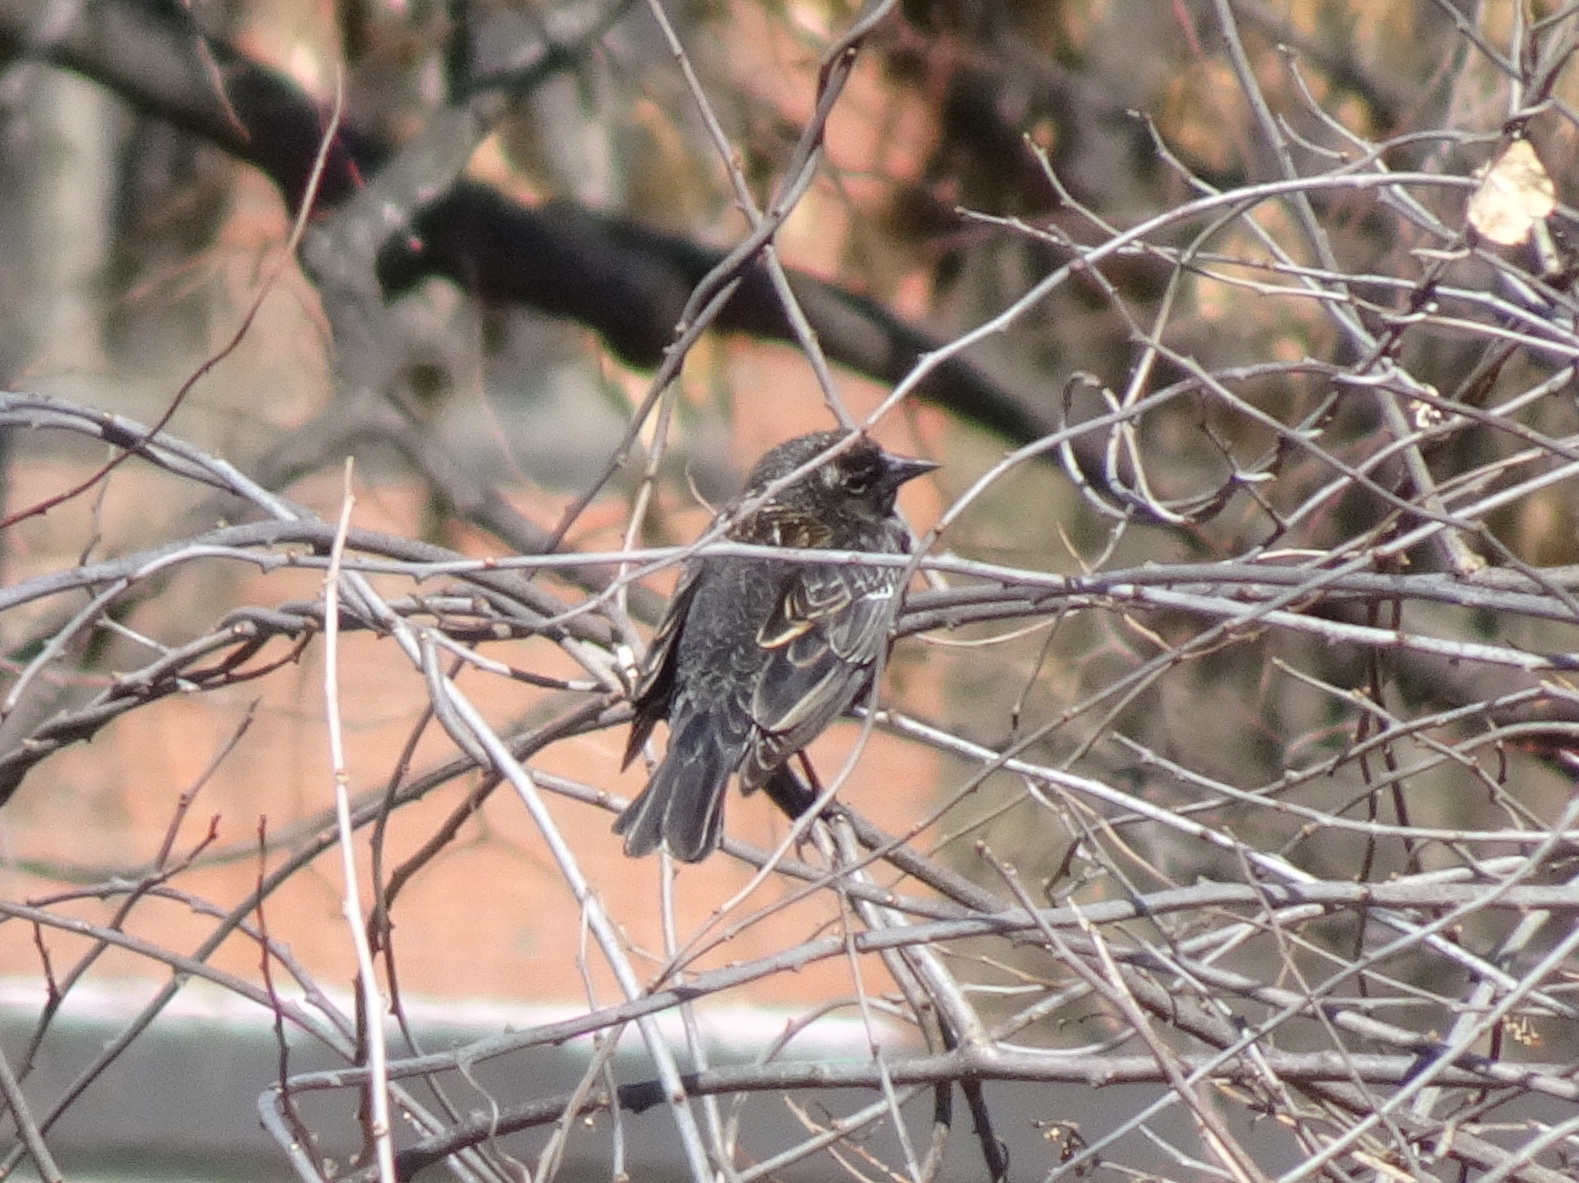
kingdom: Animalia
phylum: Chordata
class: Aves
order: Passeriformes
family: Icteridae
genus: Agelaius
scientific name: Agelaius phoeniceus
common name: Red-winged blackbird
